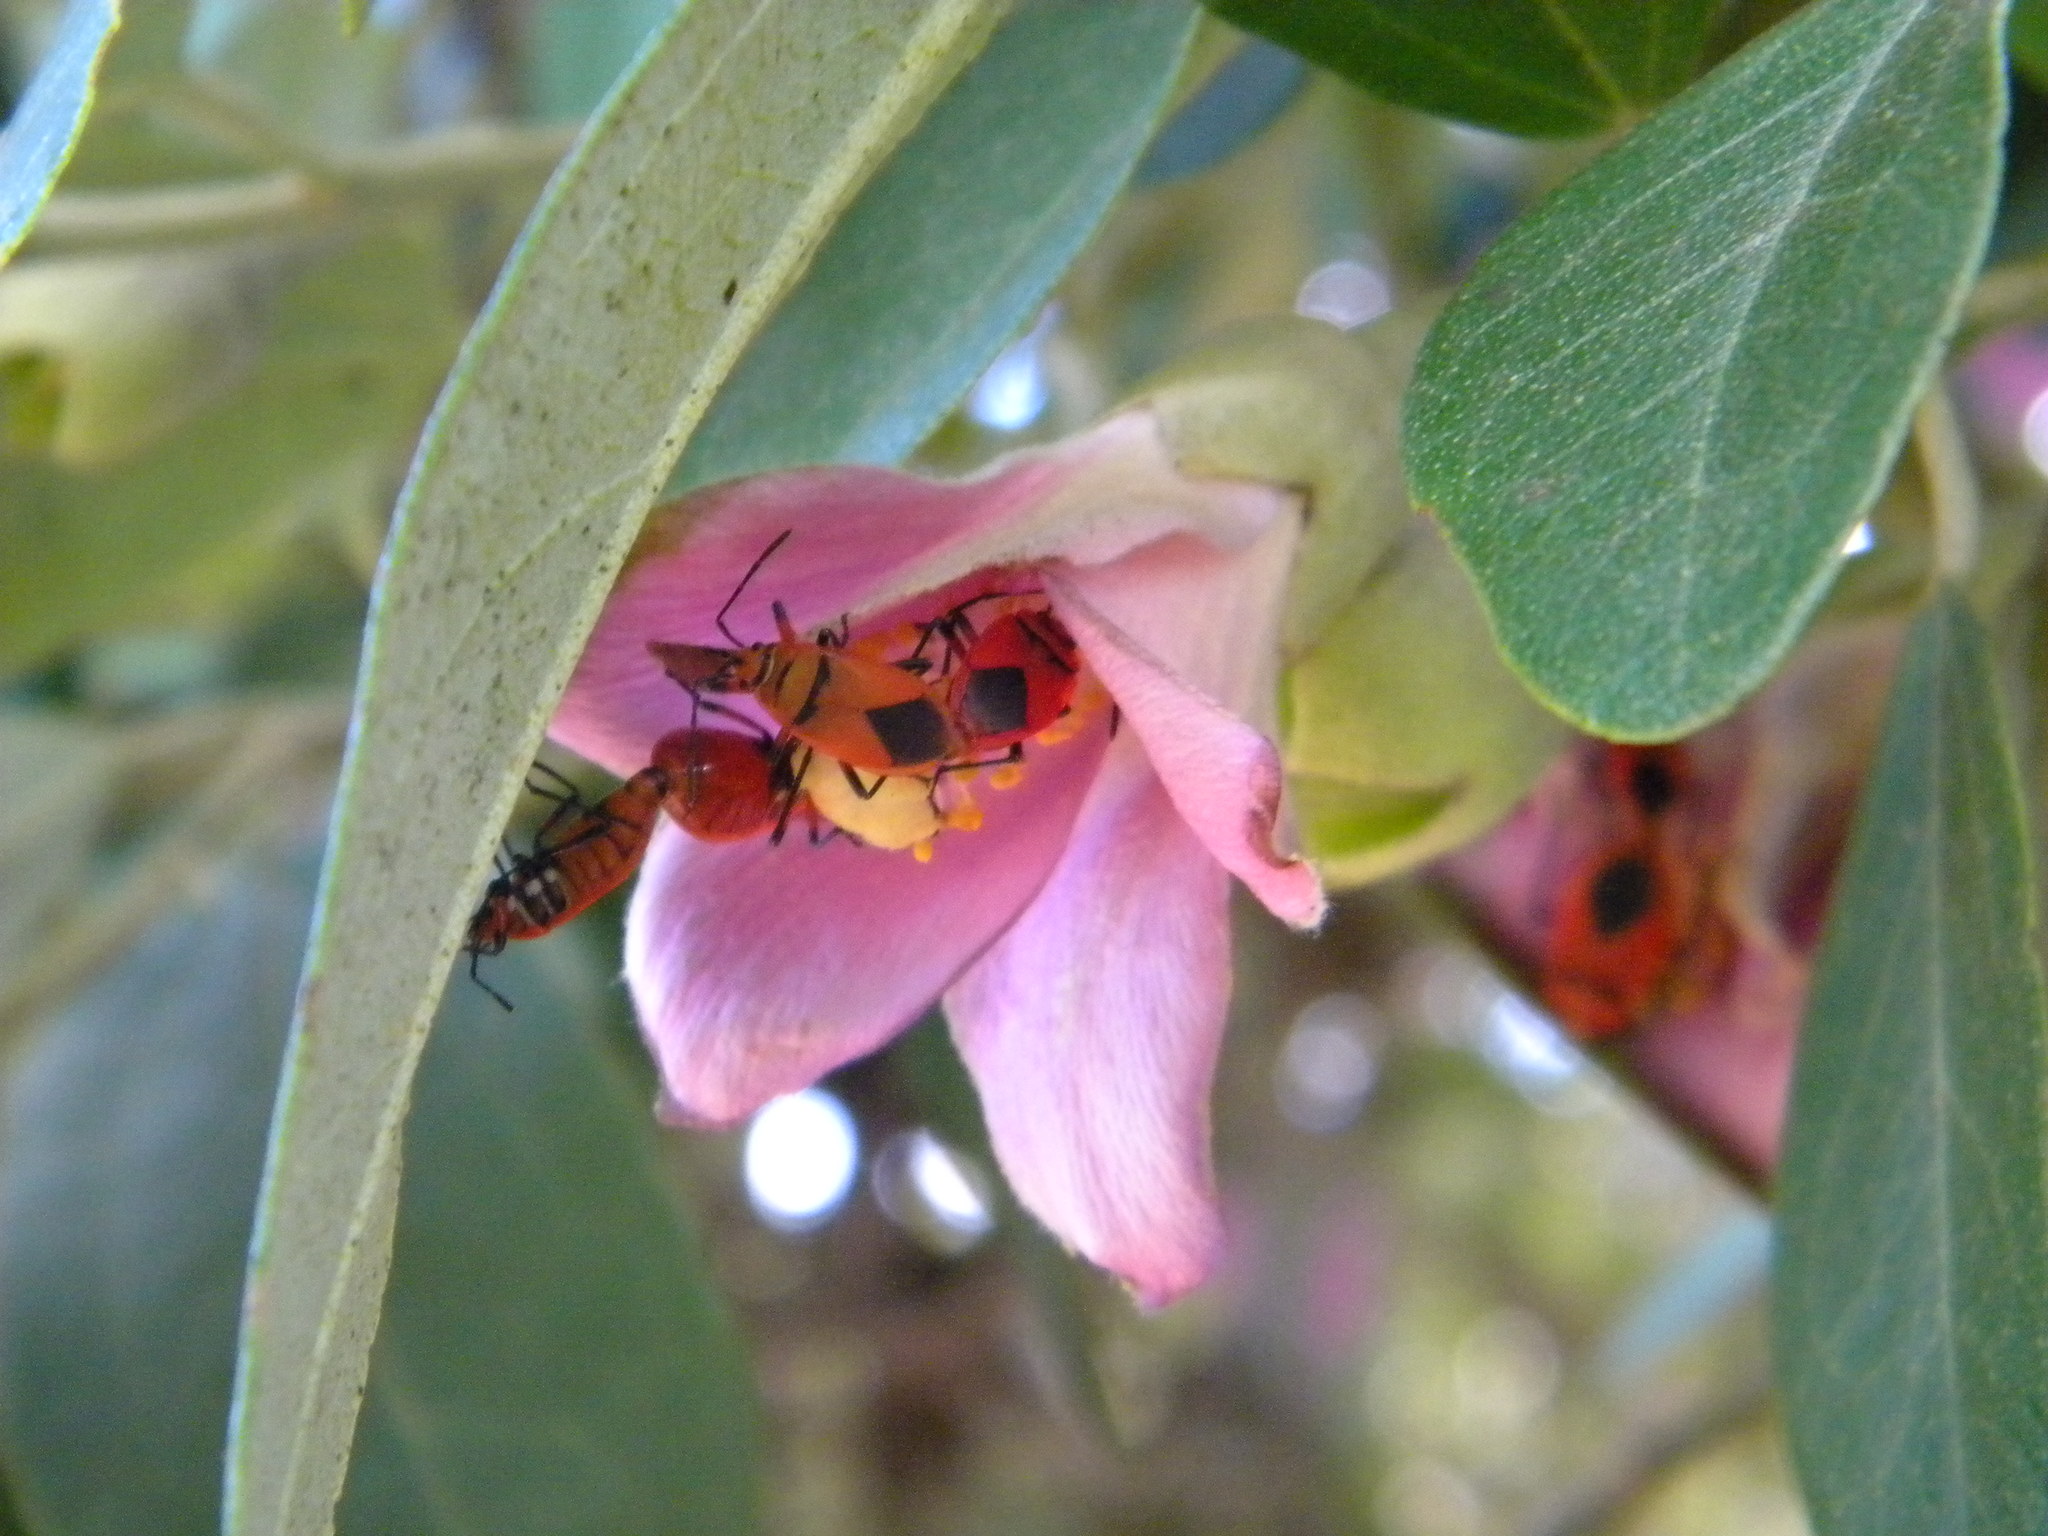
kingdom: Animalia
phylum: Arthropoda
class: Insecta
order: Hemiptera
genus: Cenaeus
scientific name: Cenaeus
